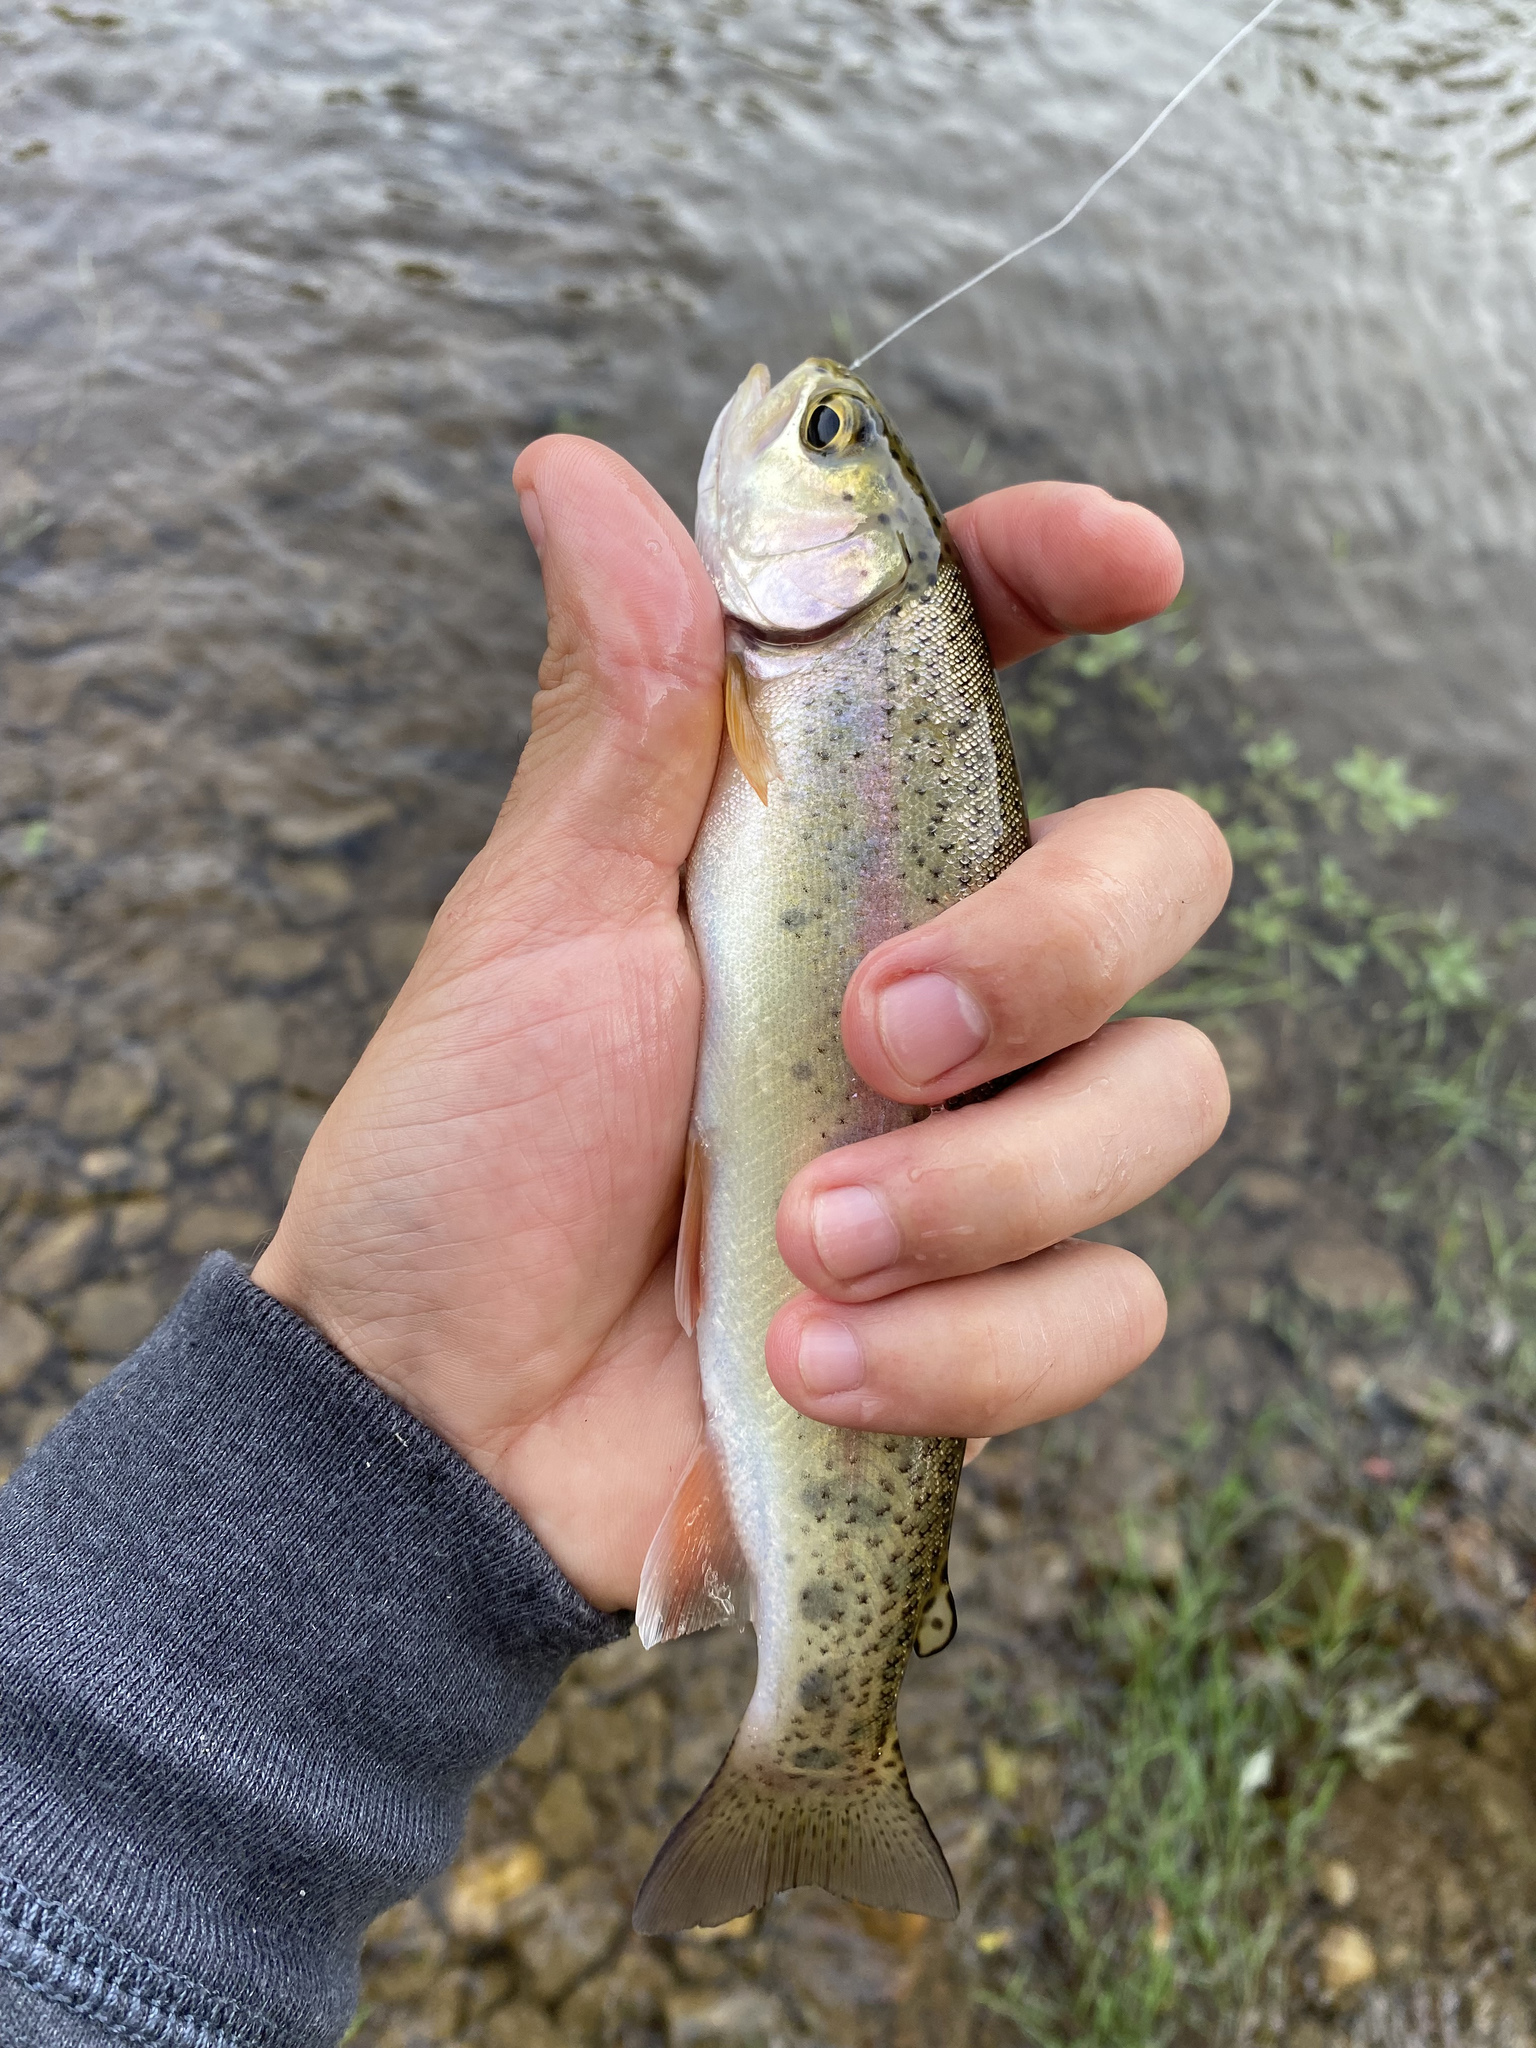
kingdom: Animalia
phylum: Chordata
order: Salmoniformes
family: Salmonidae
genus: Oncorhynchus
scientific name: Oncorhynchus mykiss
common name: Rainbow trout
